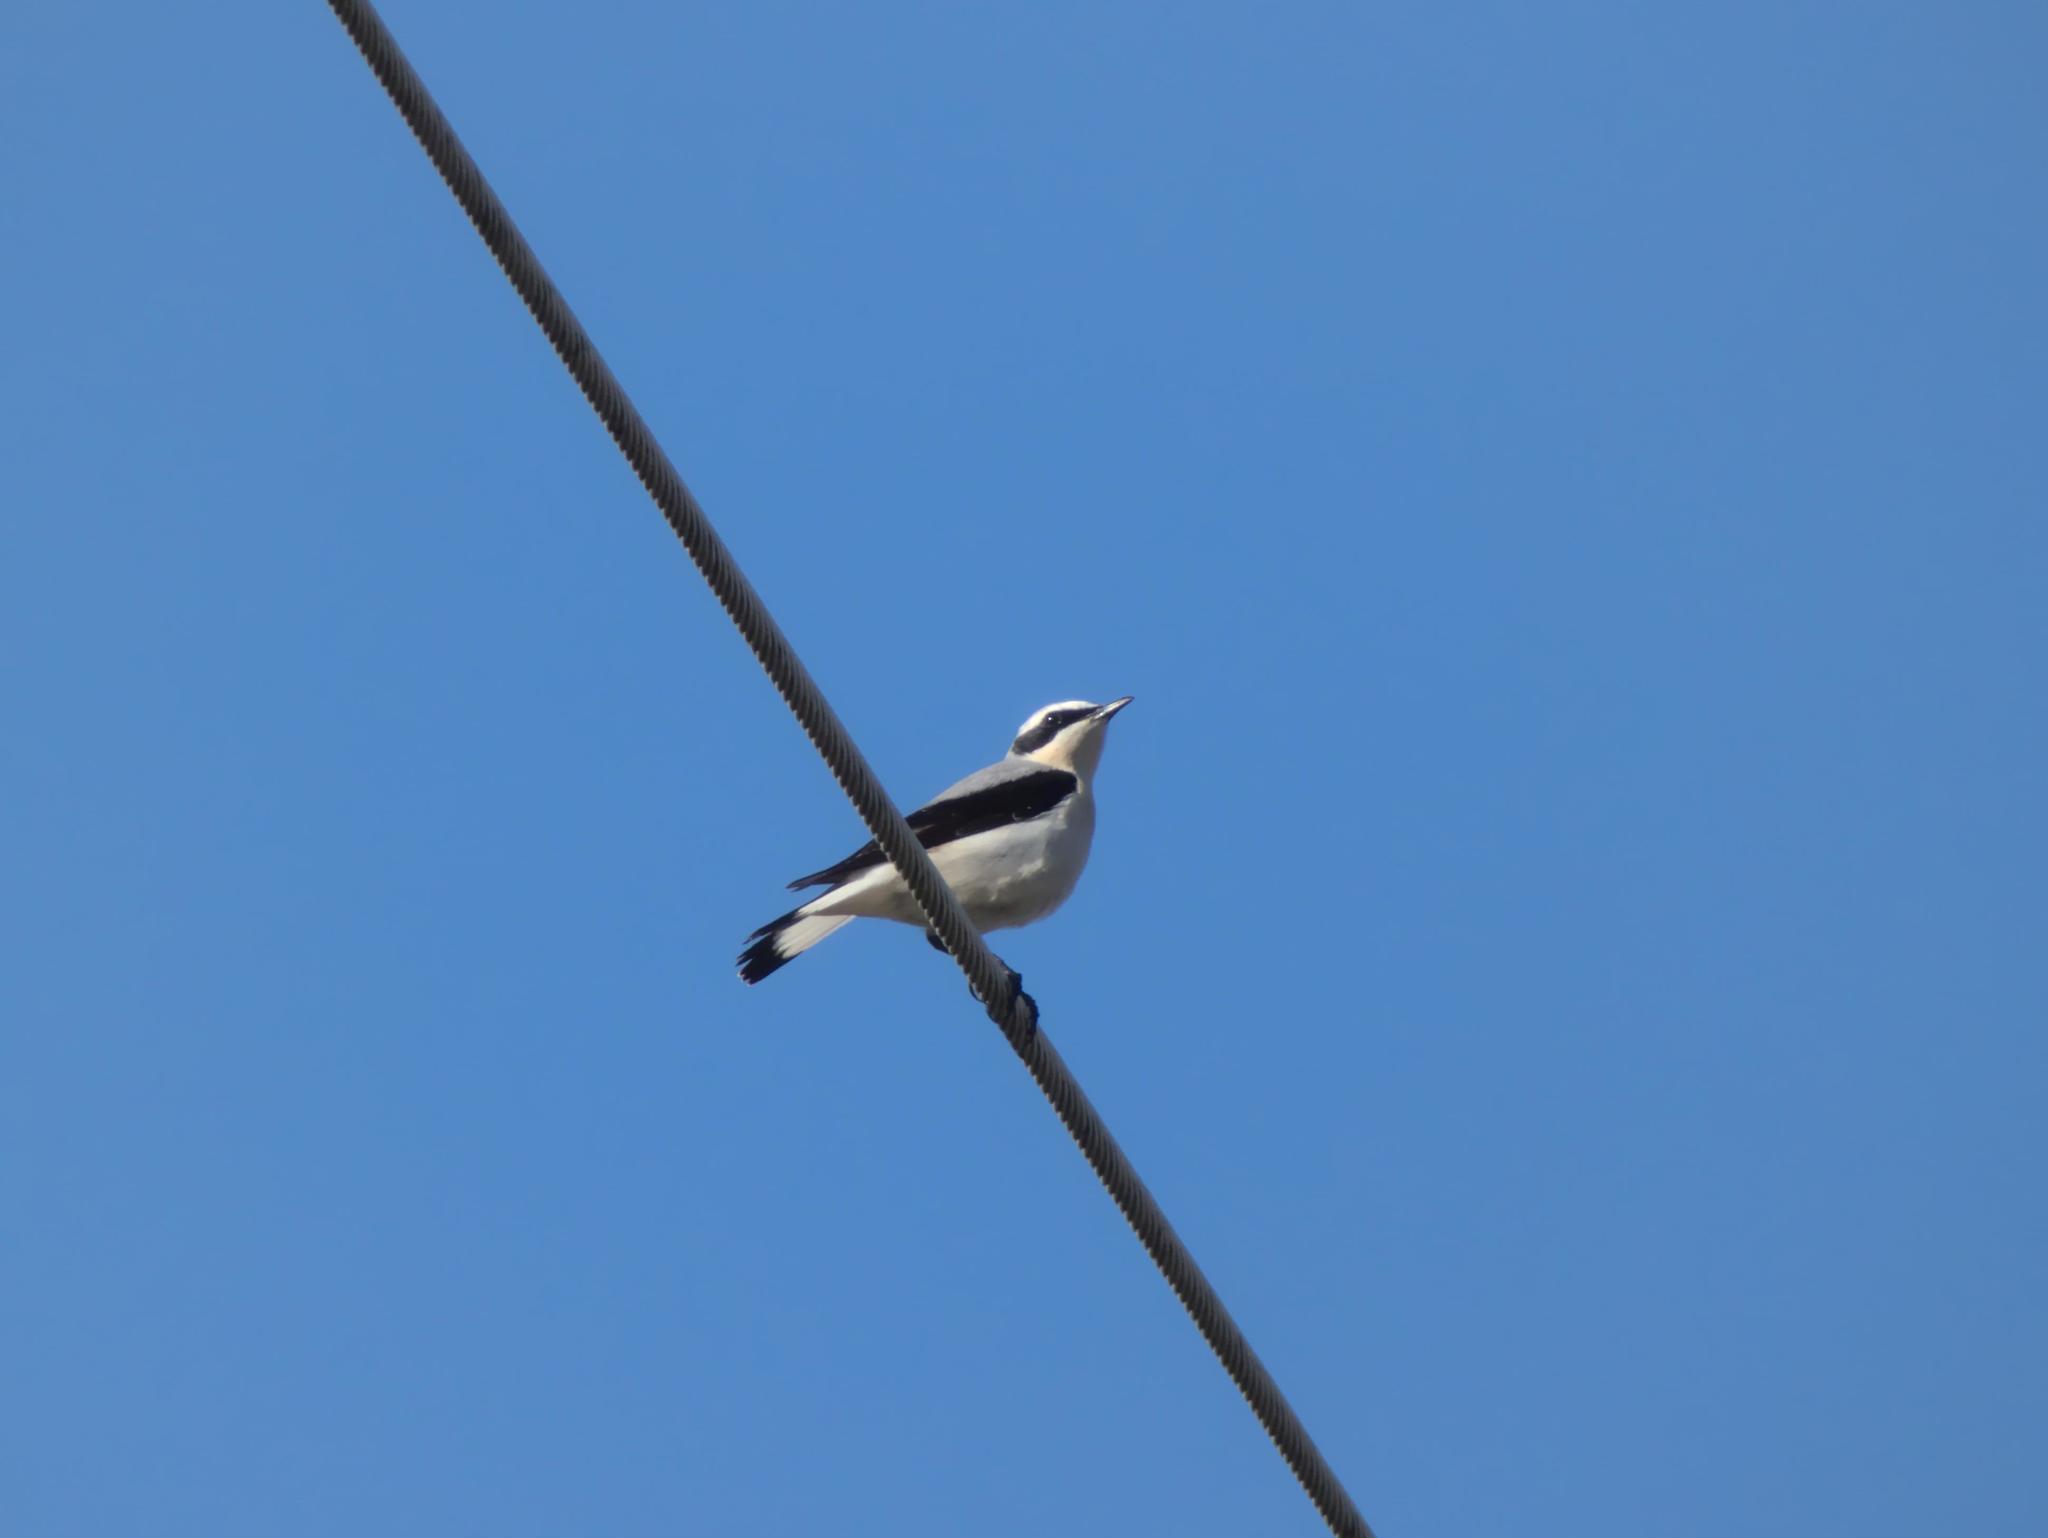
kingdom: Animalia
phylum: Chordata
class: Aves
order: Passeriformes
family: Muscicapidae
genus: Oenanthe
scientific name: Oenanthe oenanthe
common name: Northern wheatear
